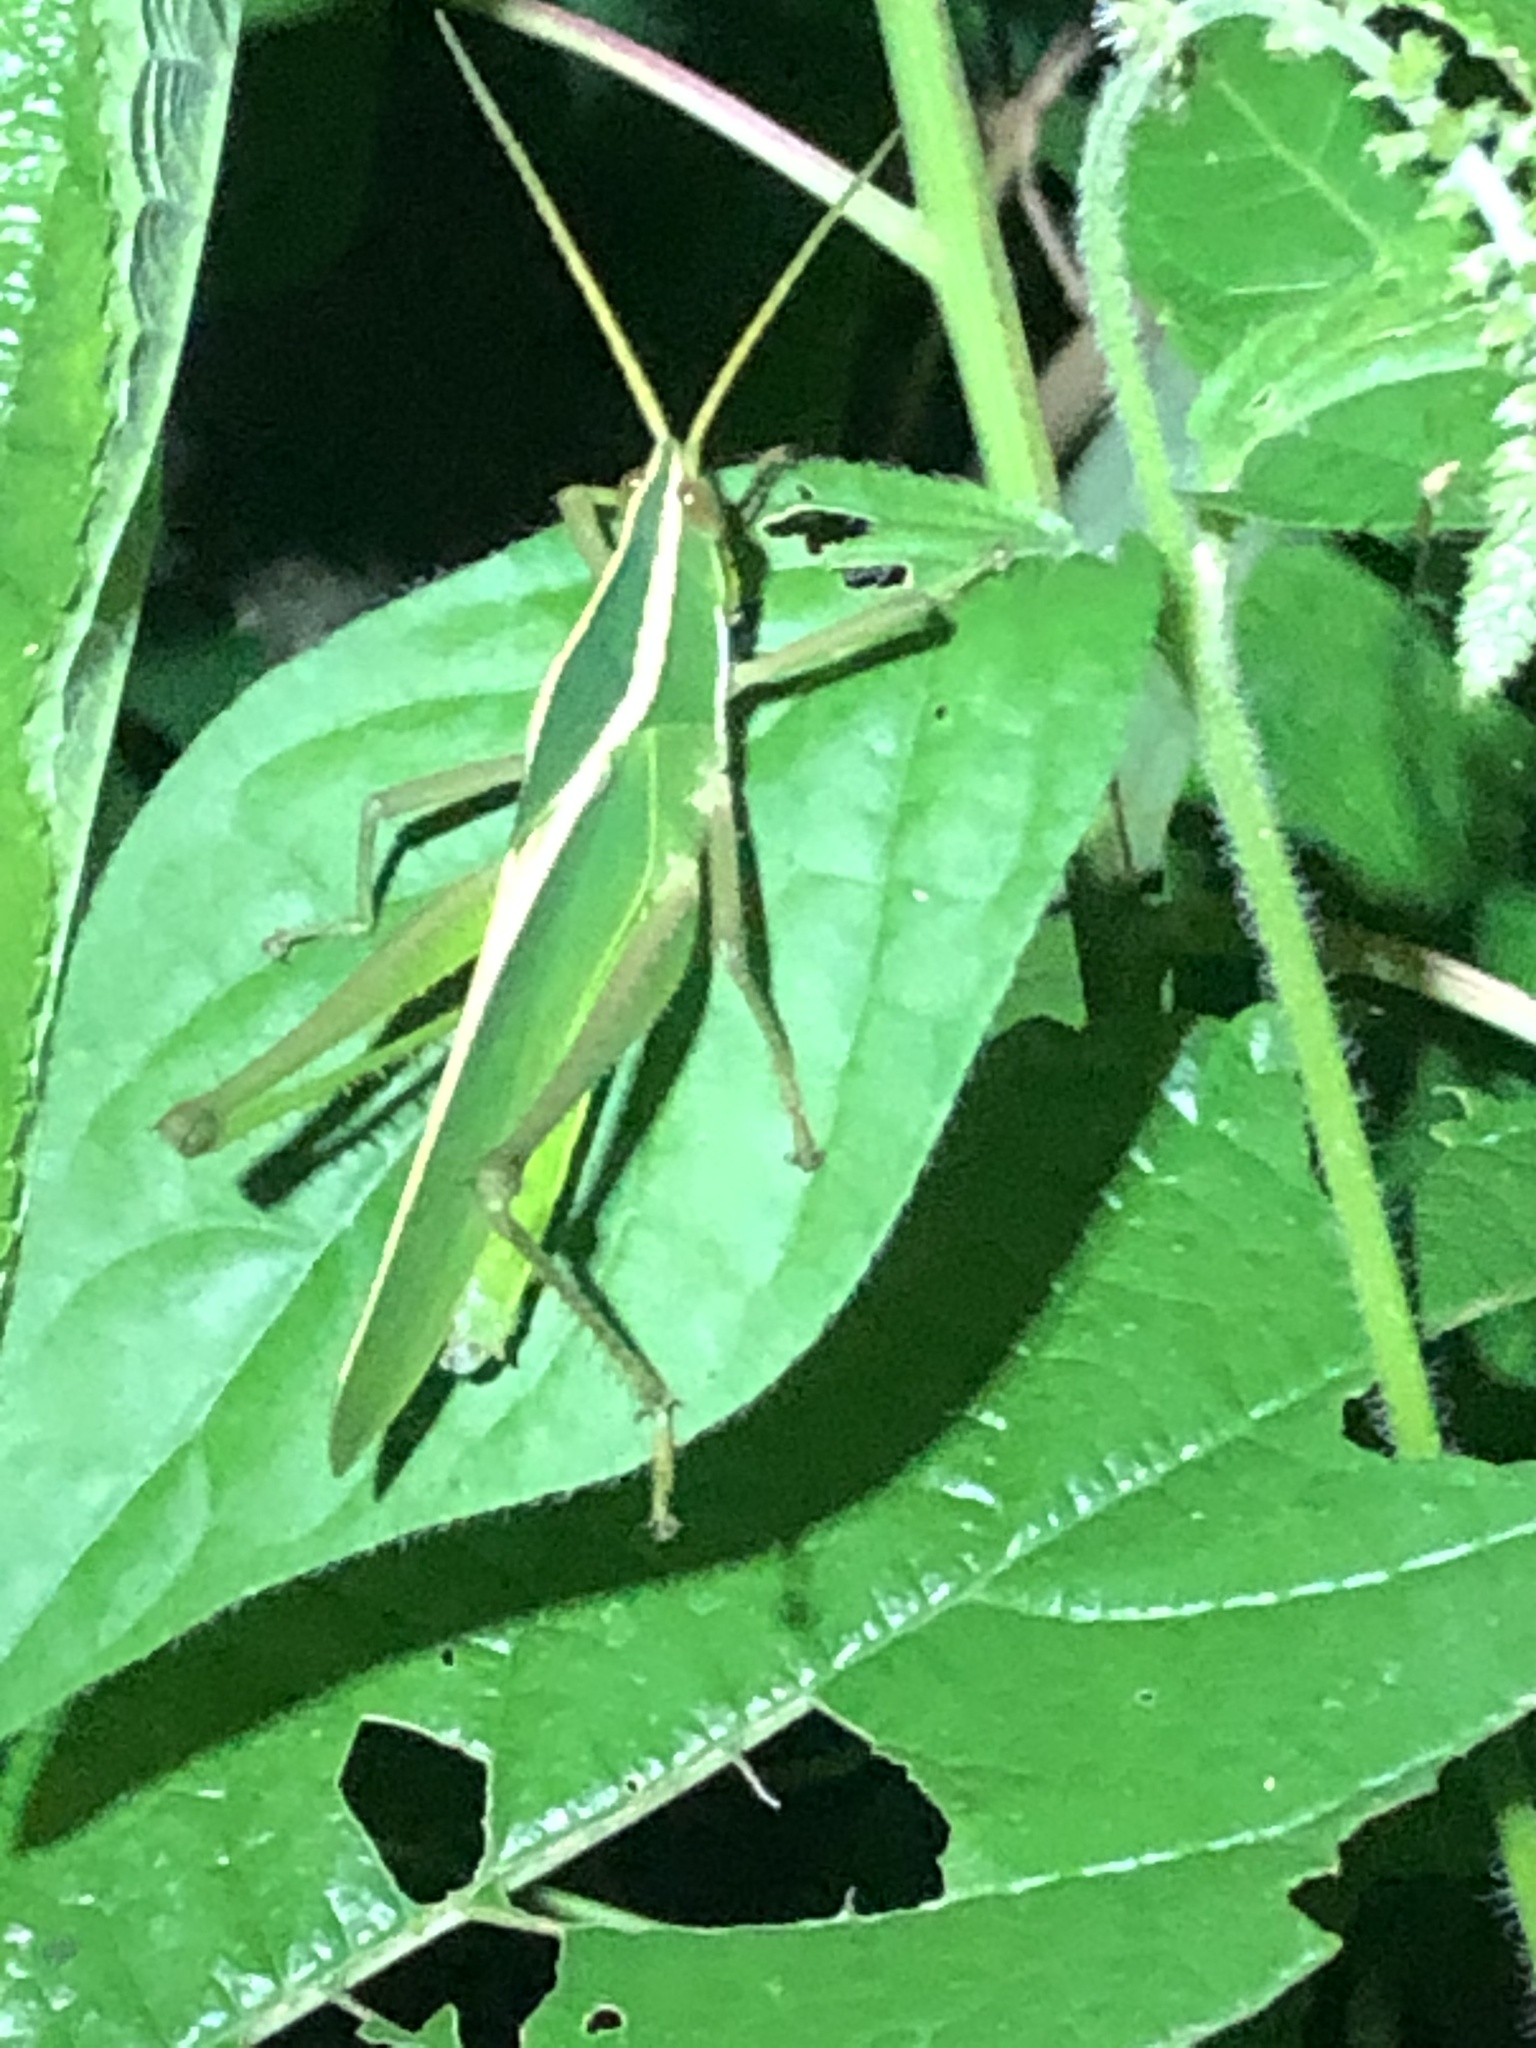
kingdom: Animalia
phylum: Arthropoda
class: Insecta
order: Orthoptera
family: Romaleidae
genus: Prionolopha
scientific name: Prionolopha serrata
